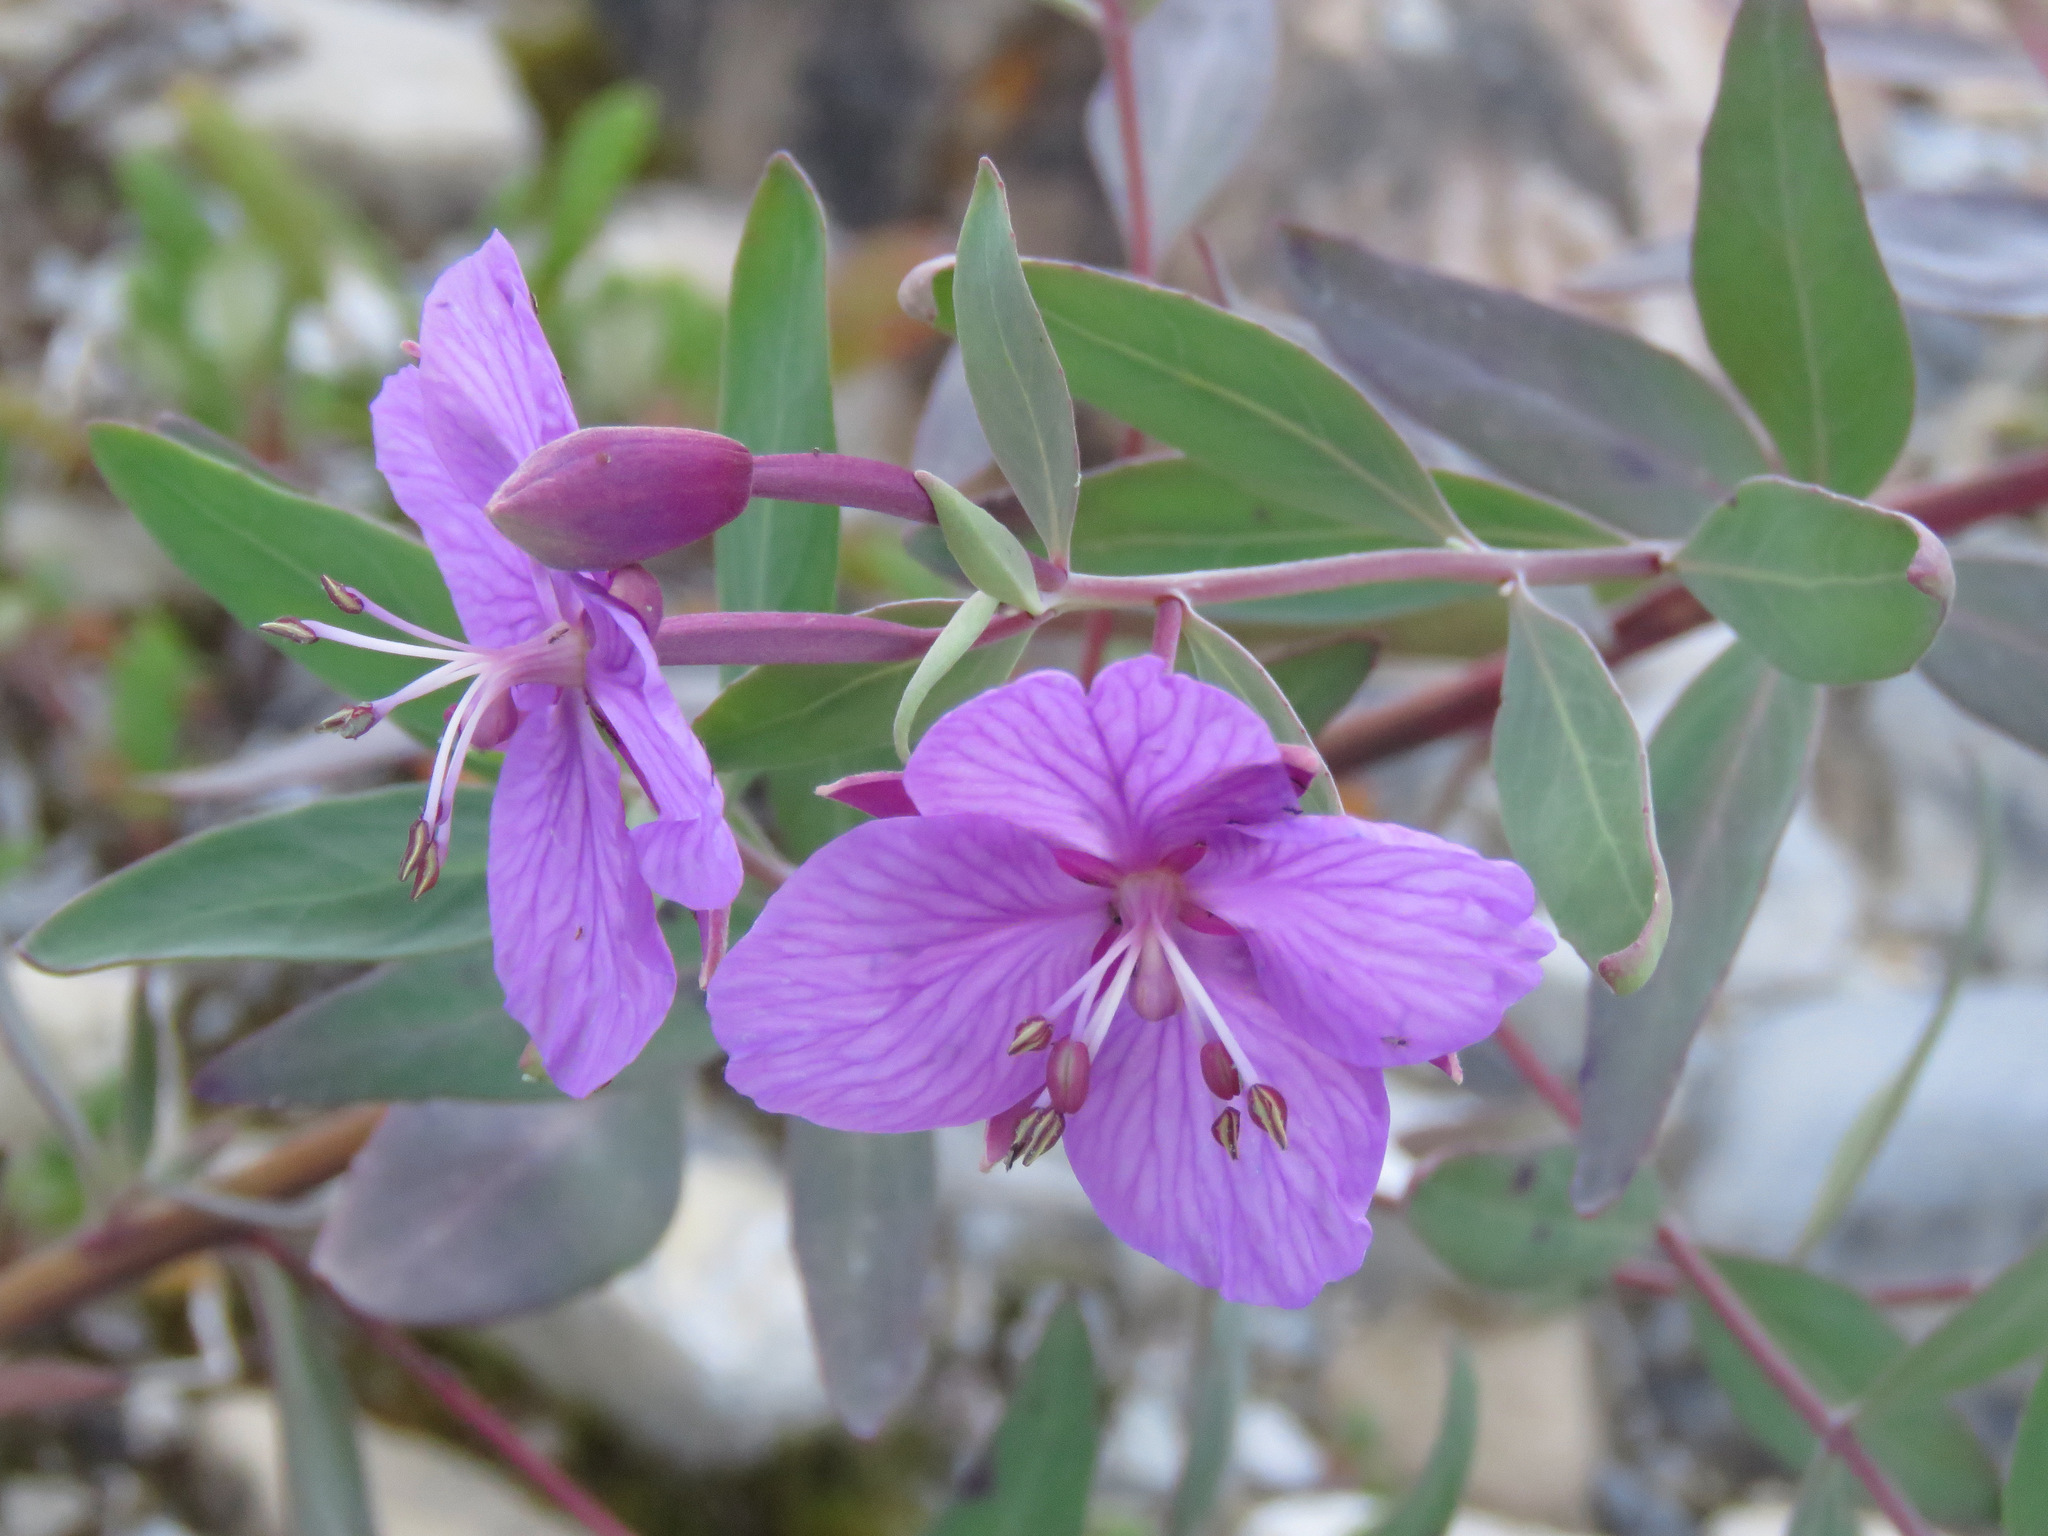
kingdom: Plantae
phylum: Tracheophyta
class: Magnoliopsida
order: Myrtales
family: Onagraceae
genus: Chamaenerion
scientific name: Chamaenerion latifolium
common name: Dwarf fireweed
